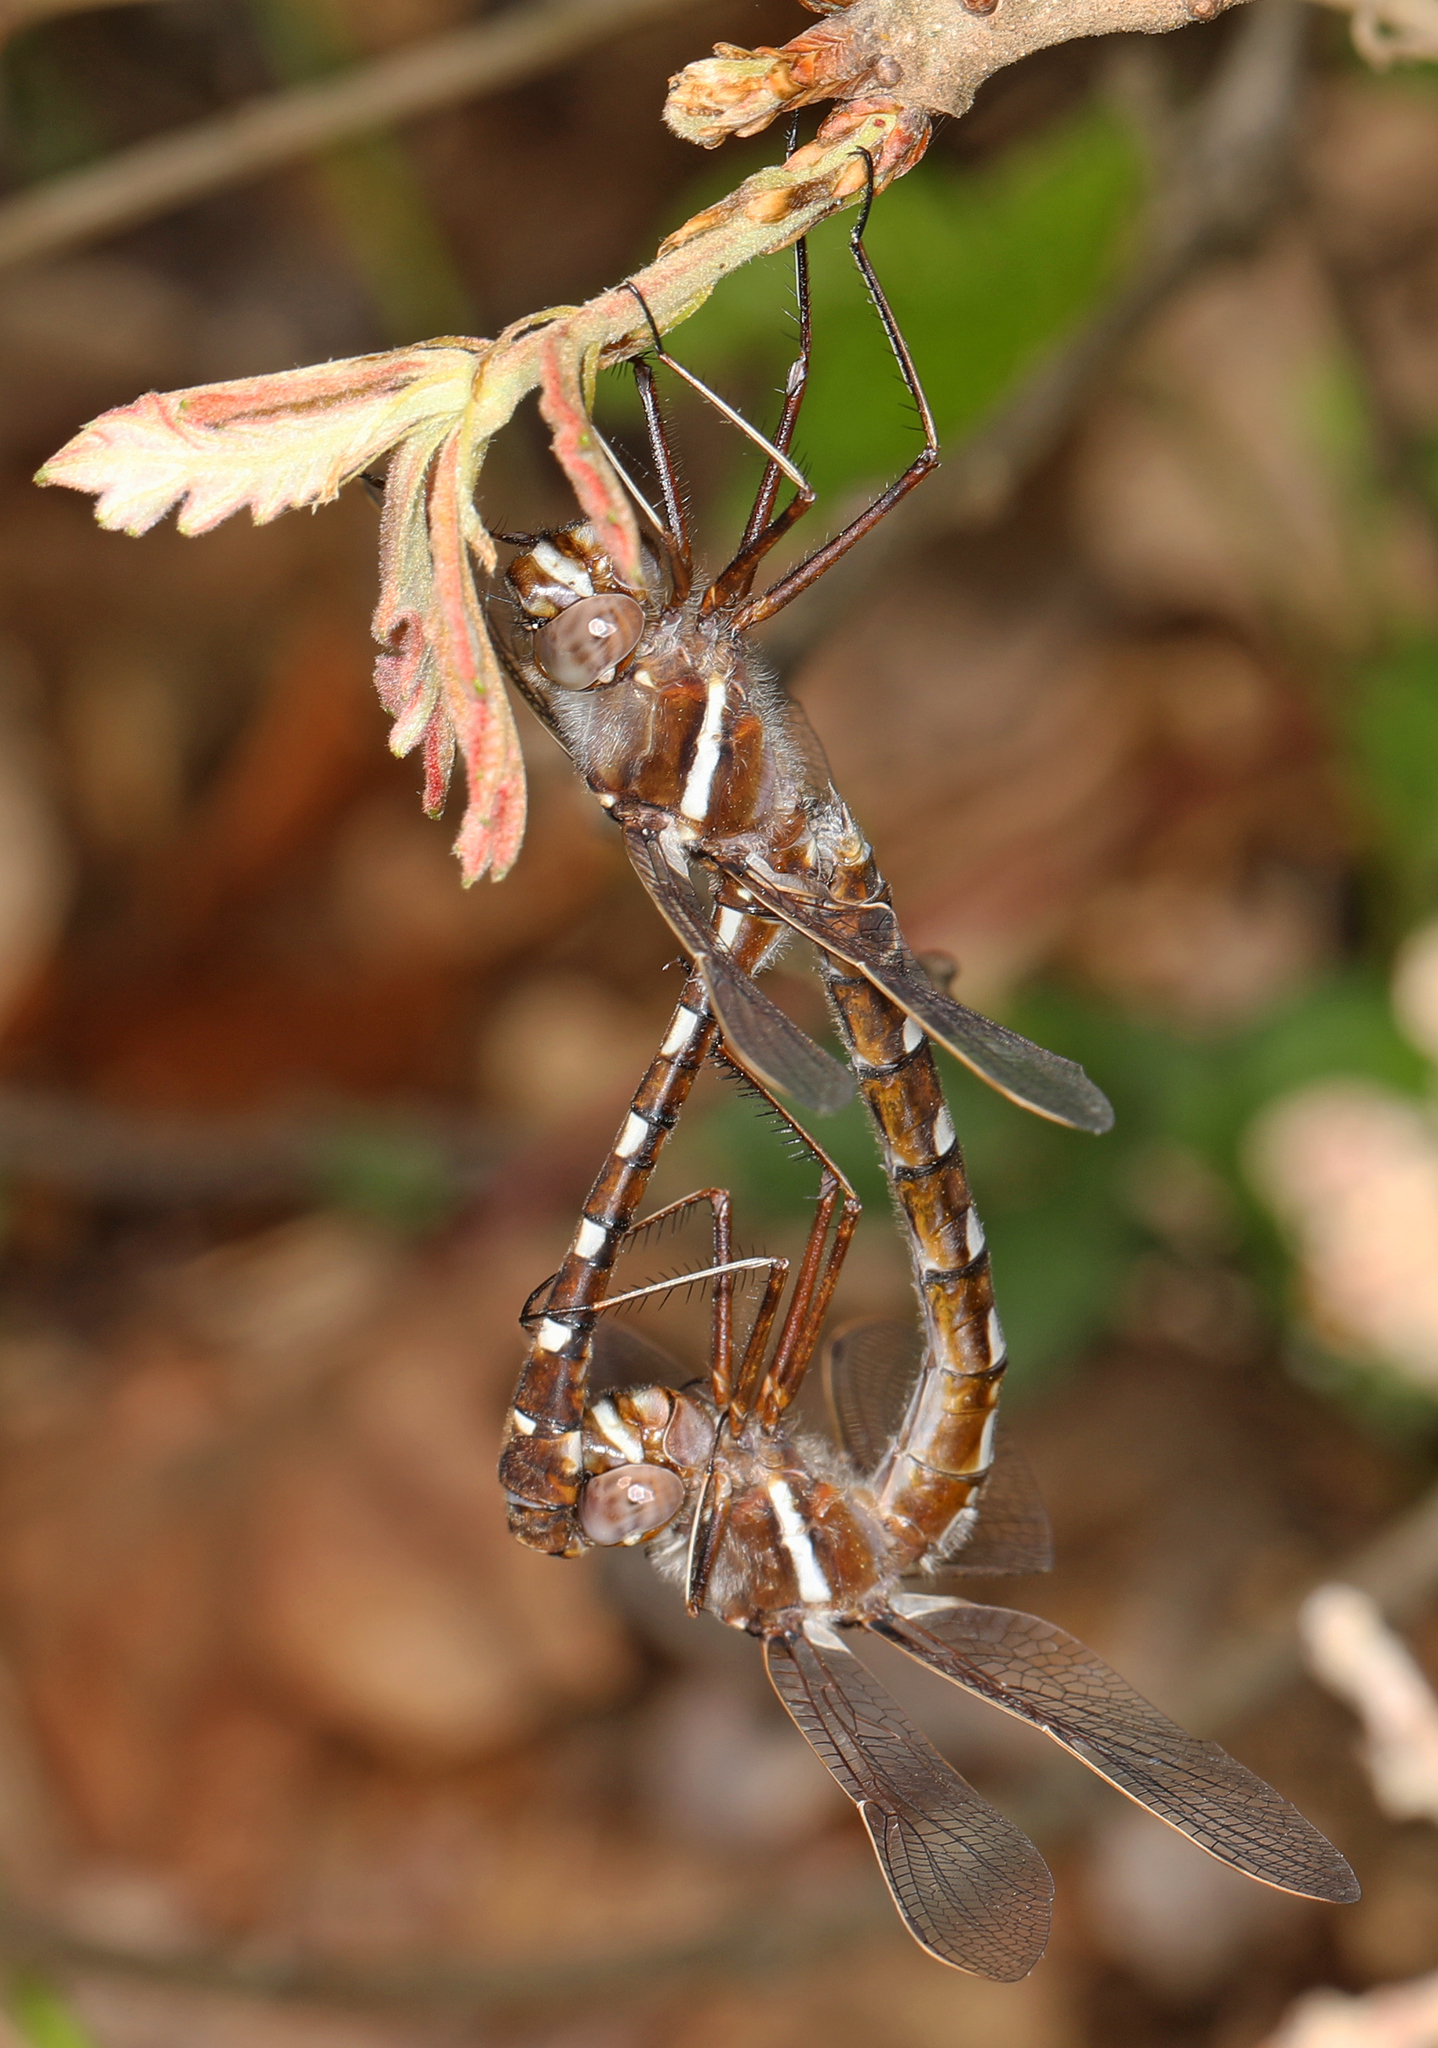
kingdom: Animalia
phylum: Arthropoda
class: Insecta
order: Odonata
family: Macromiidae
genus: Didymops
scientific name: Didymops transversa
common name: Stream cruiser
